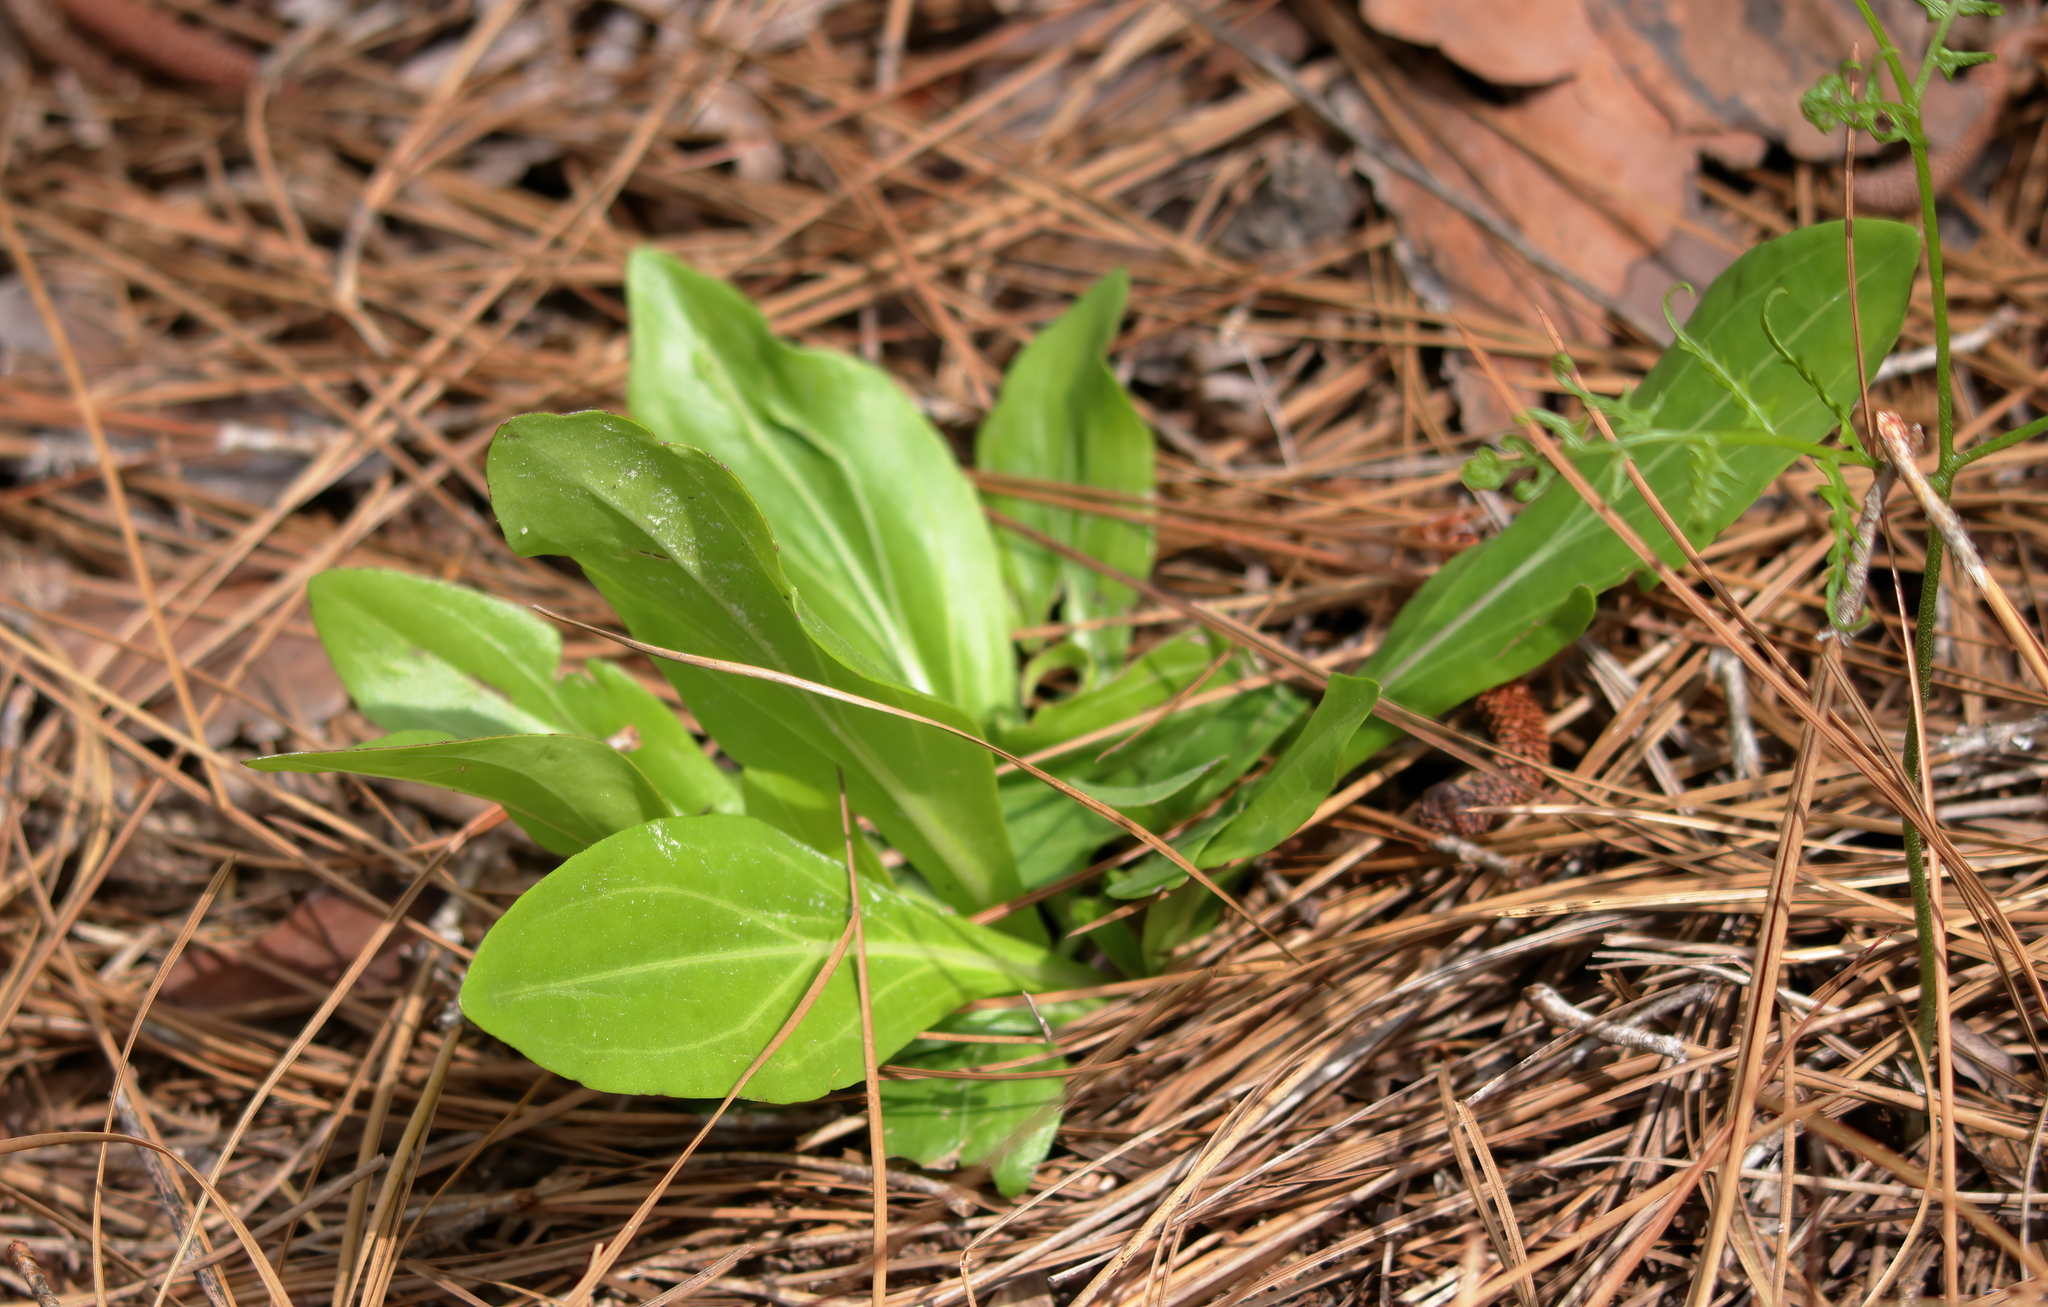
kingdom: Plantae
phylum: Tracheophyta
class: Magnoliopsida
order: Asterales
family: Asteraceae
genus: Carphephorus
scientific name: Carphephorus odoratissimus
